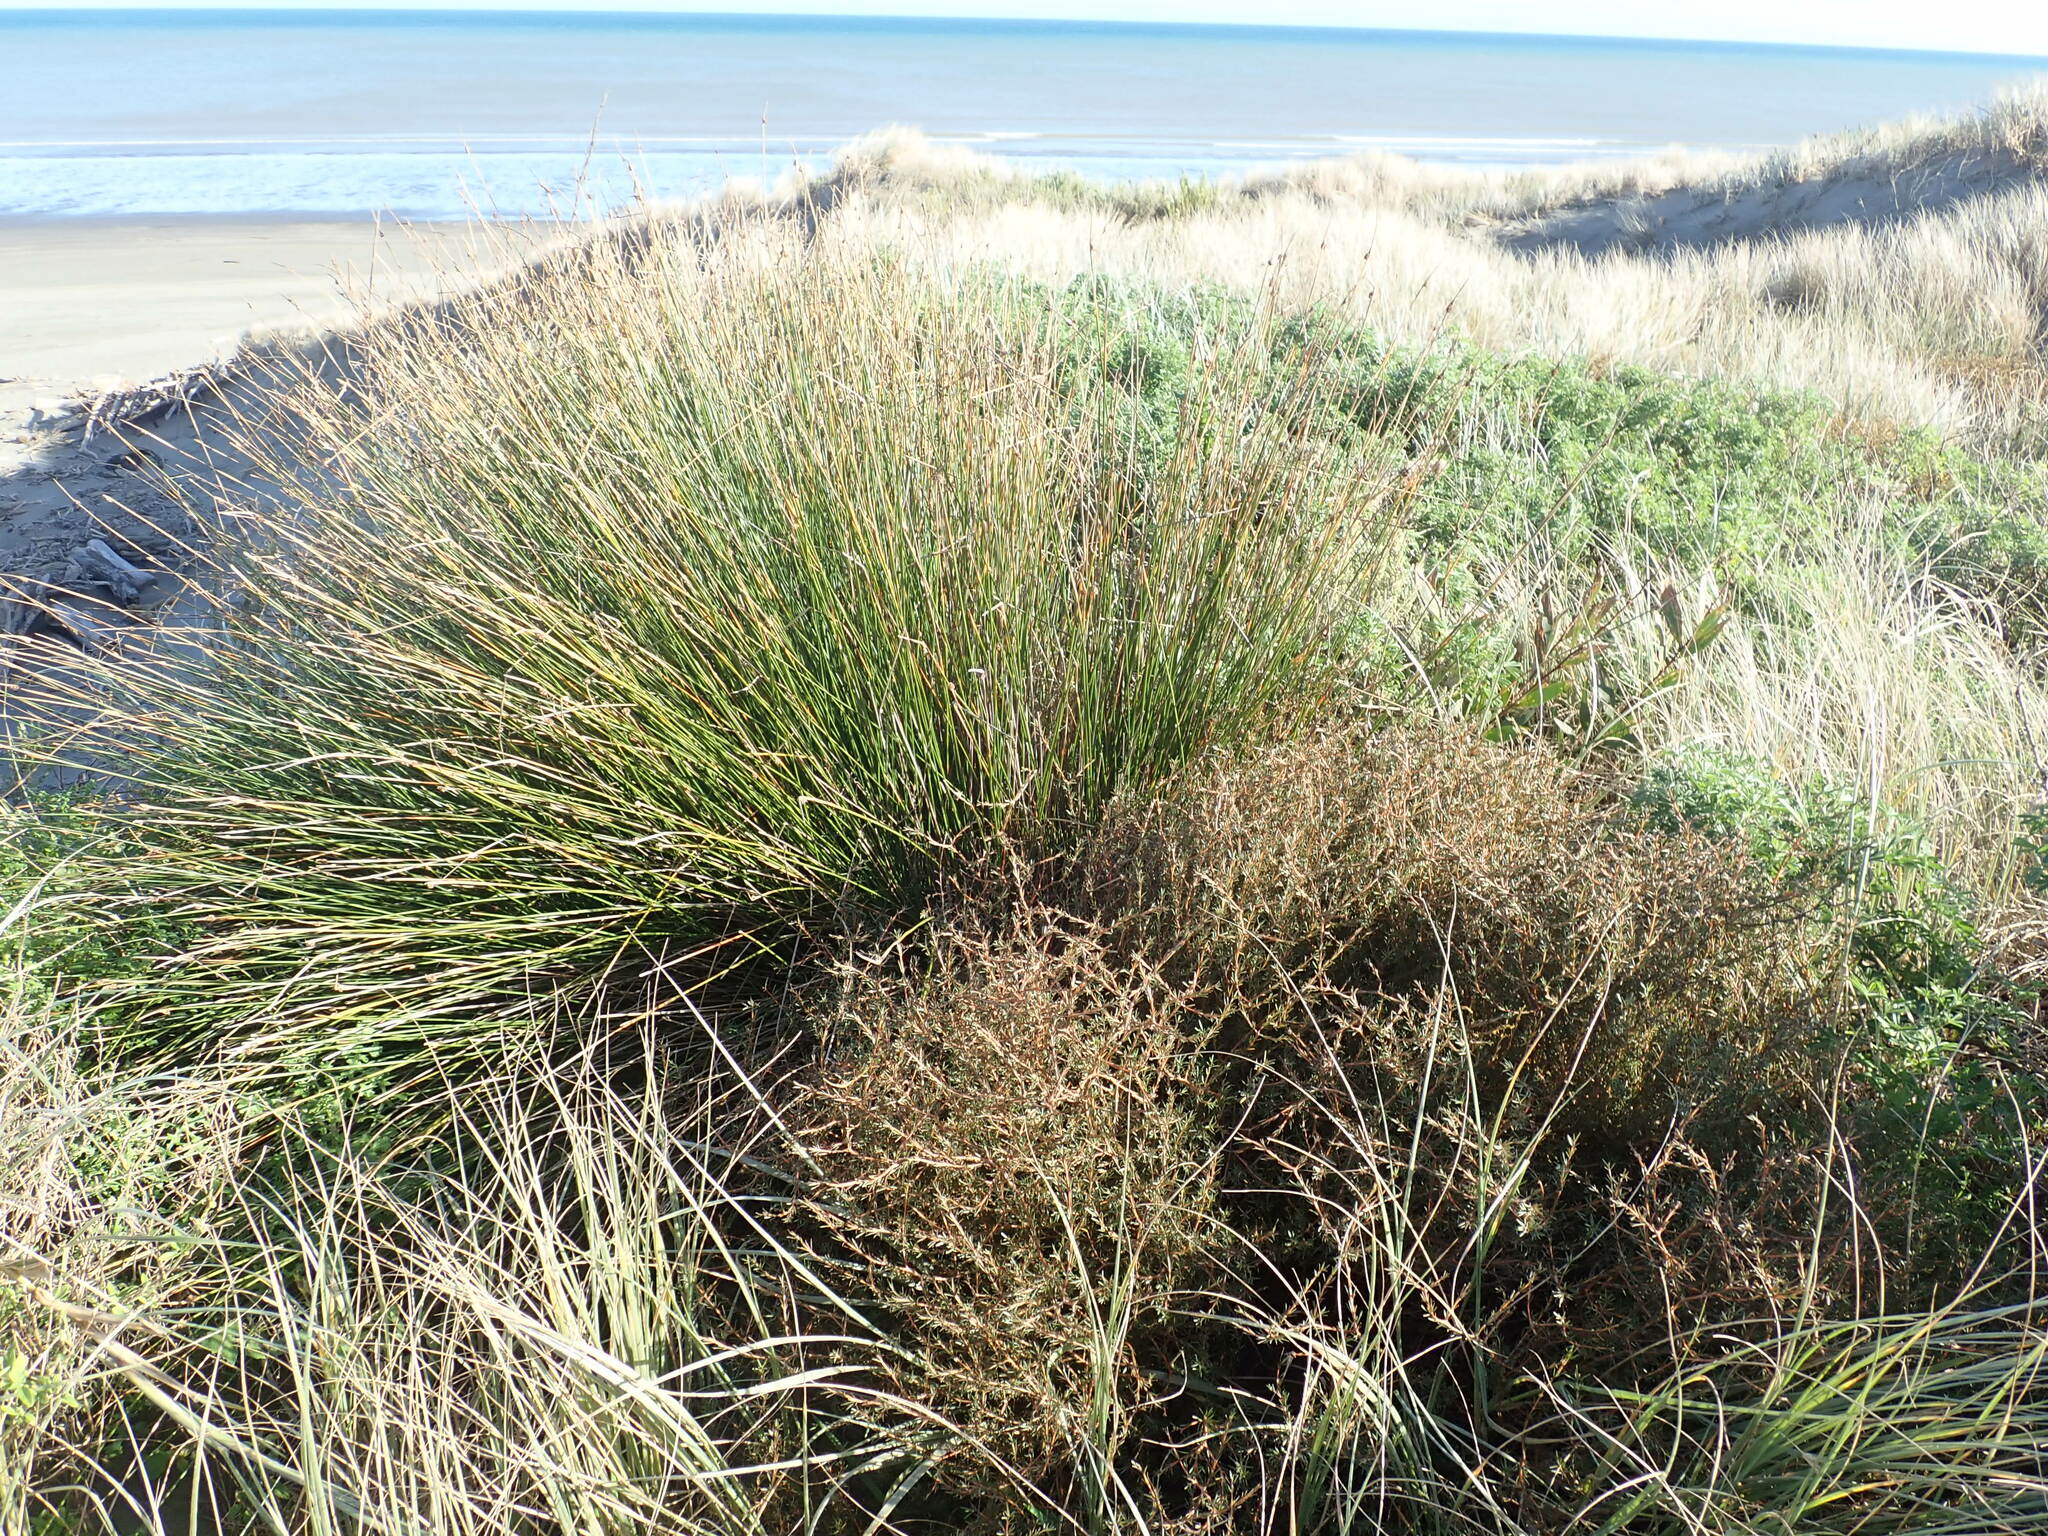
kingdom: Plantae
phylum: Tracheophyta
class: Magnoliopsida
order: Gentianales
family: Rubiaceae
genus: Coprosma
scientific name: Coprosma acerosa
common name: Sand coprosma
